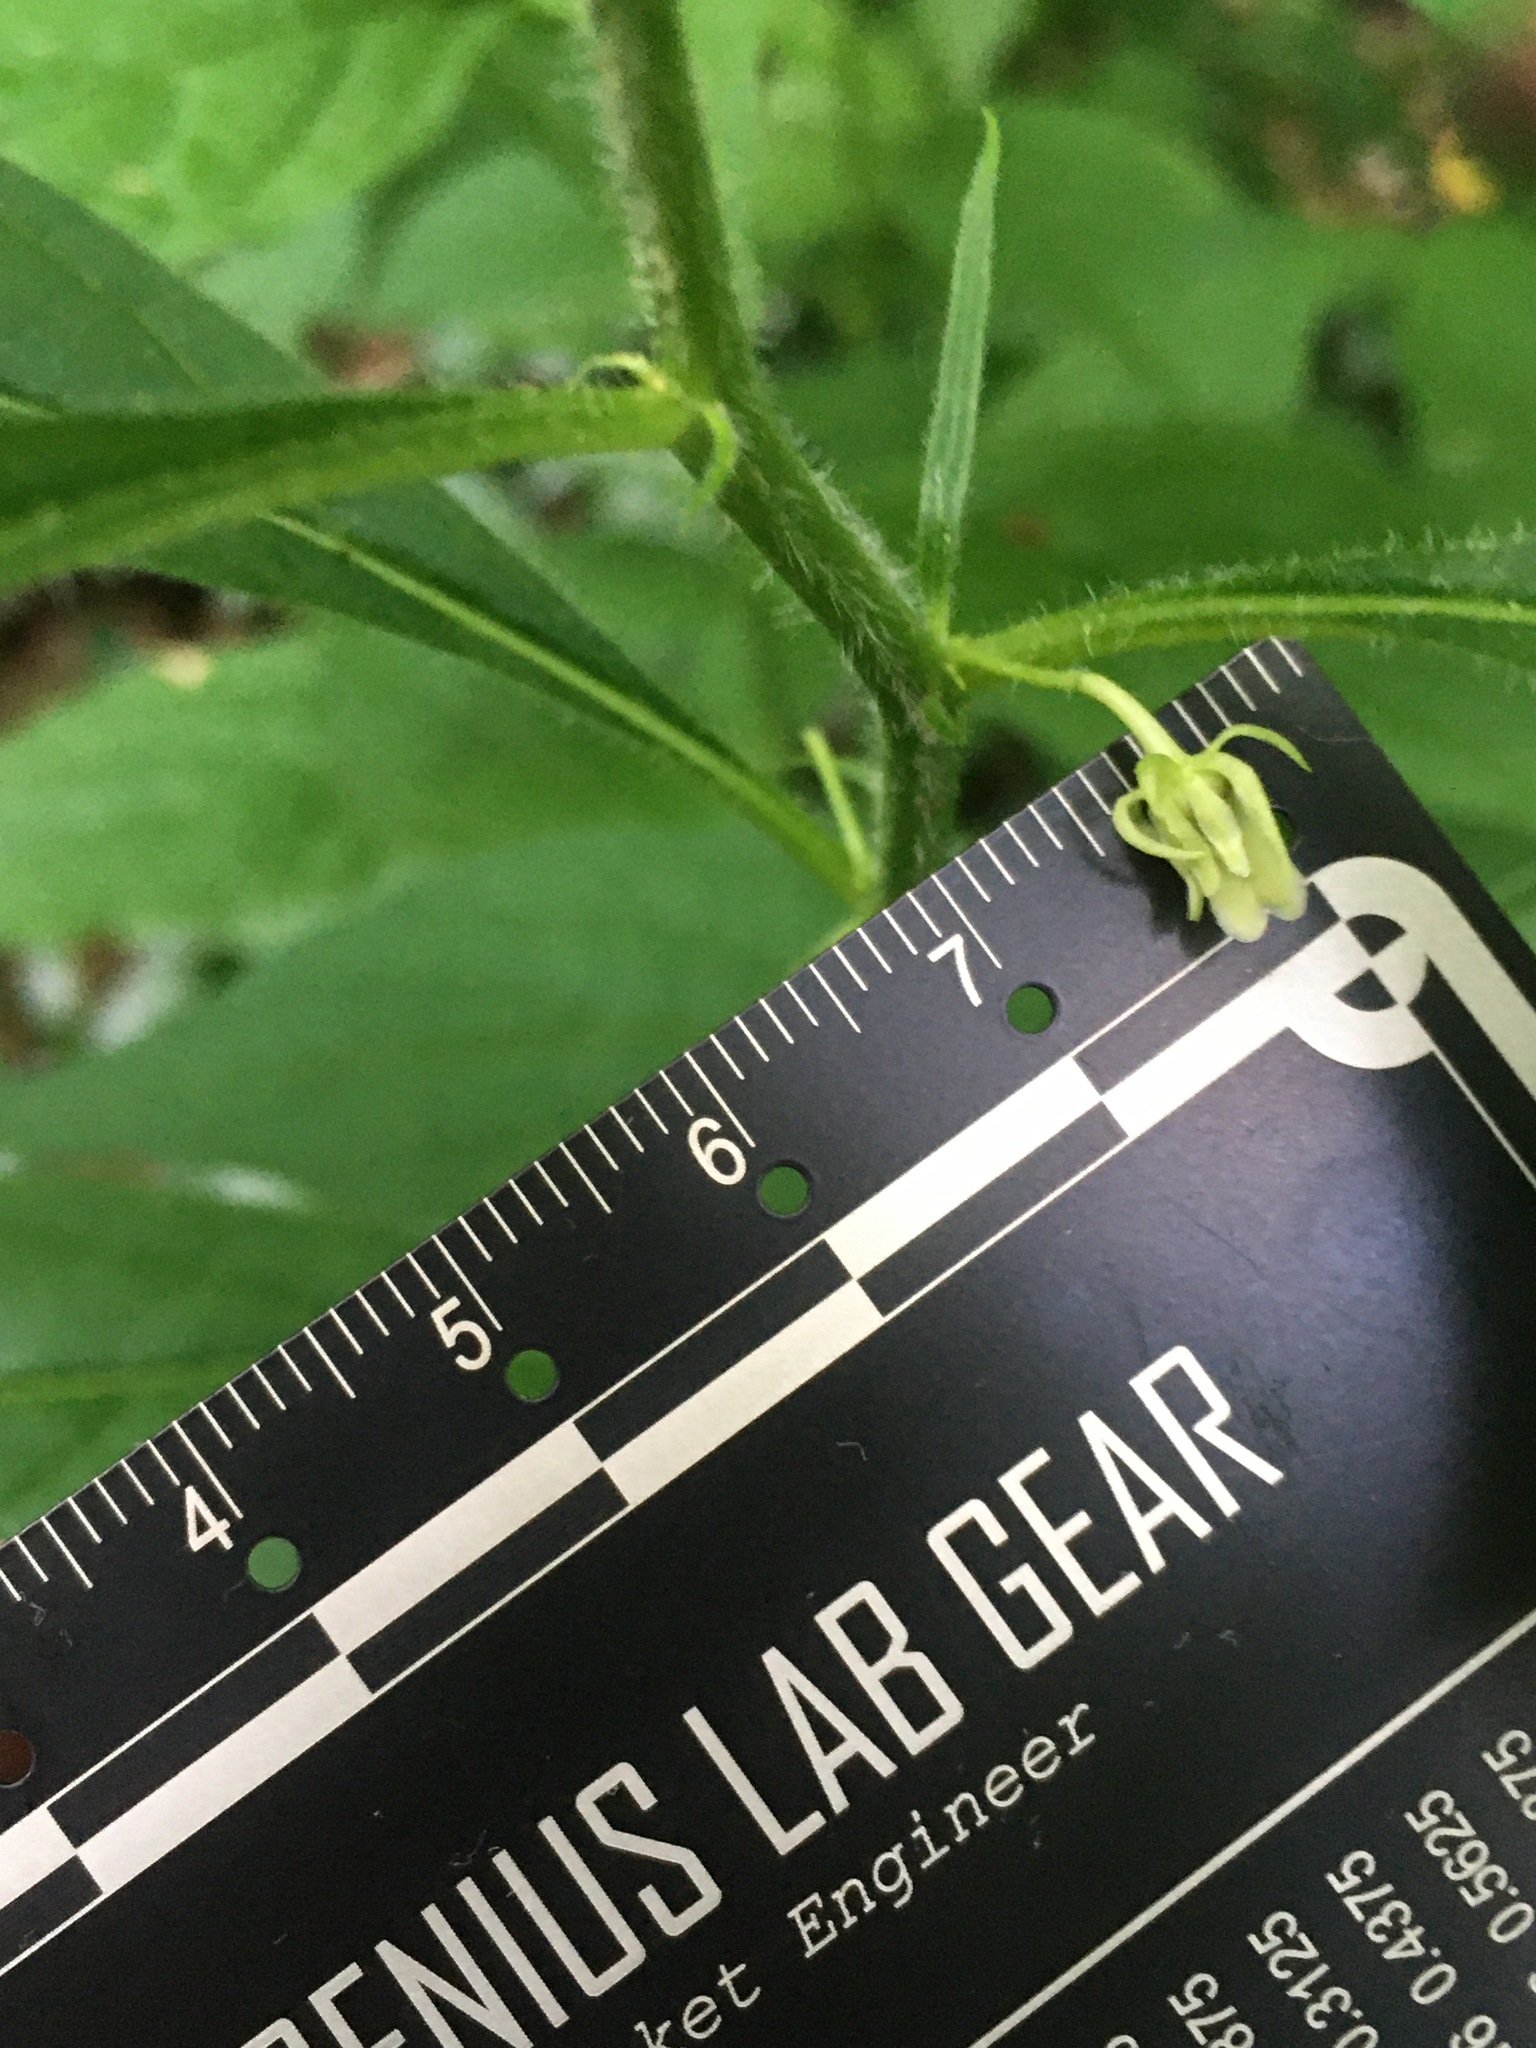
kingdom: Plantae
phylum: Tracheophyta
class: Magnoliopsida
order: Malpighiales
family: Violaceae
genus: Cubelium
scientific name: Cubelium concolor
